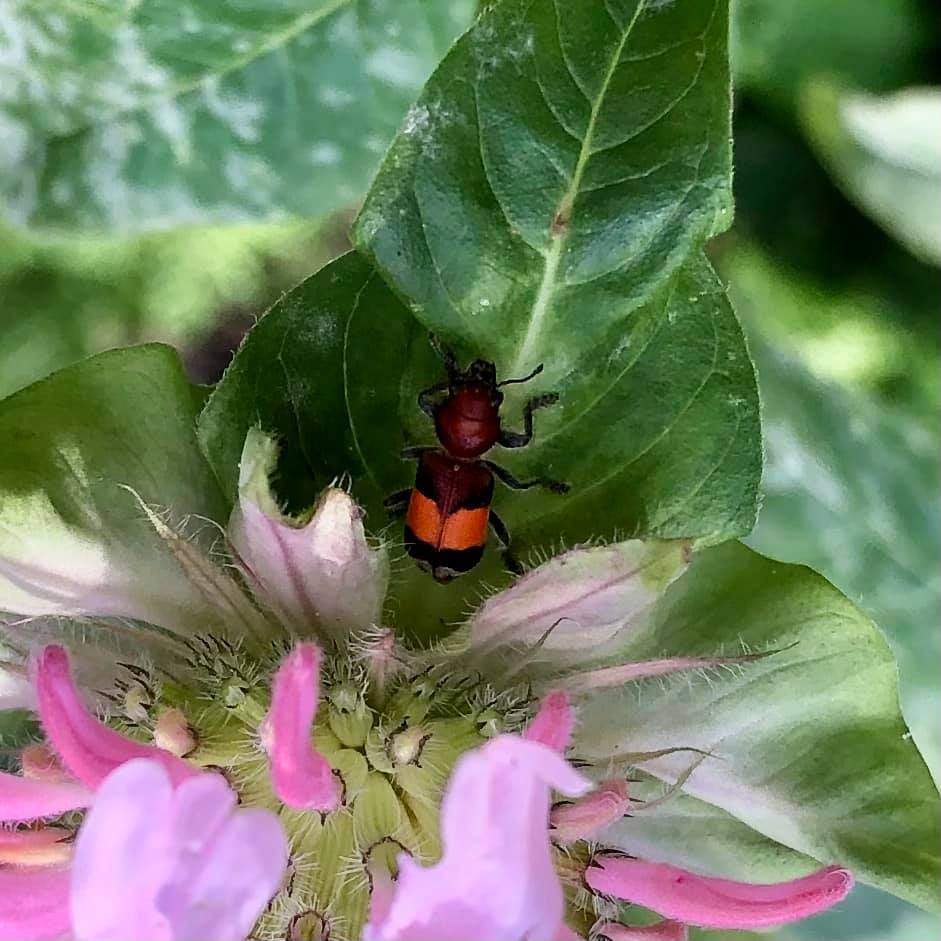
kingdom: Animalia
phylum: Arthropoda
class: Insecta
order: Coleoptera
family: Cleridae
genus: Enoclerus
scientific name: Enoclerus ichneumoneus
